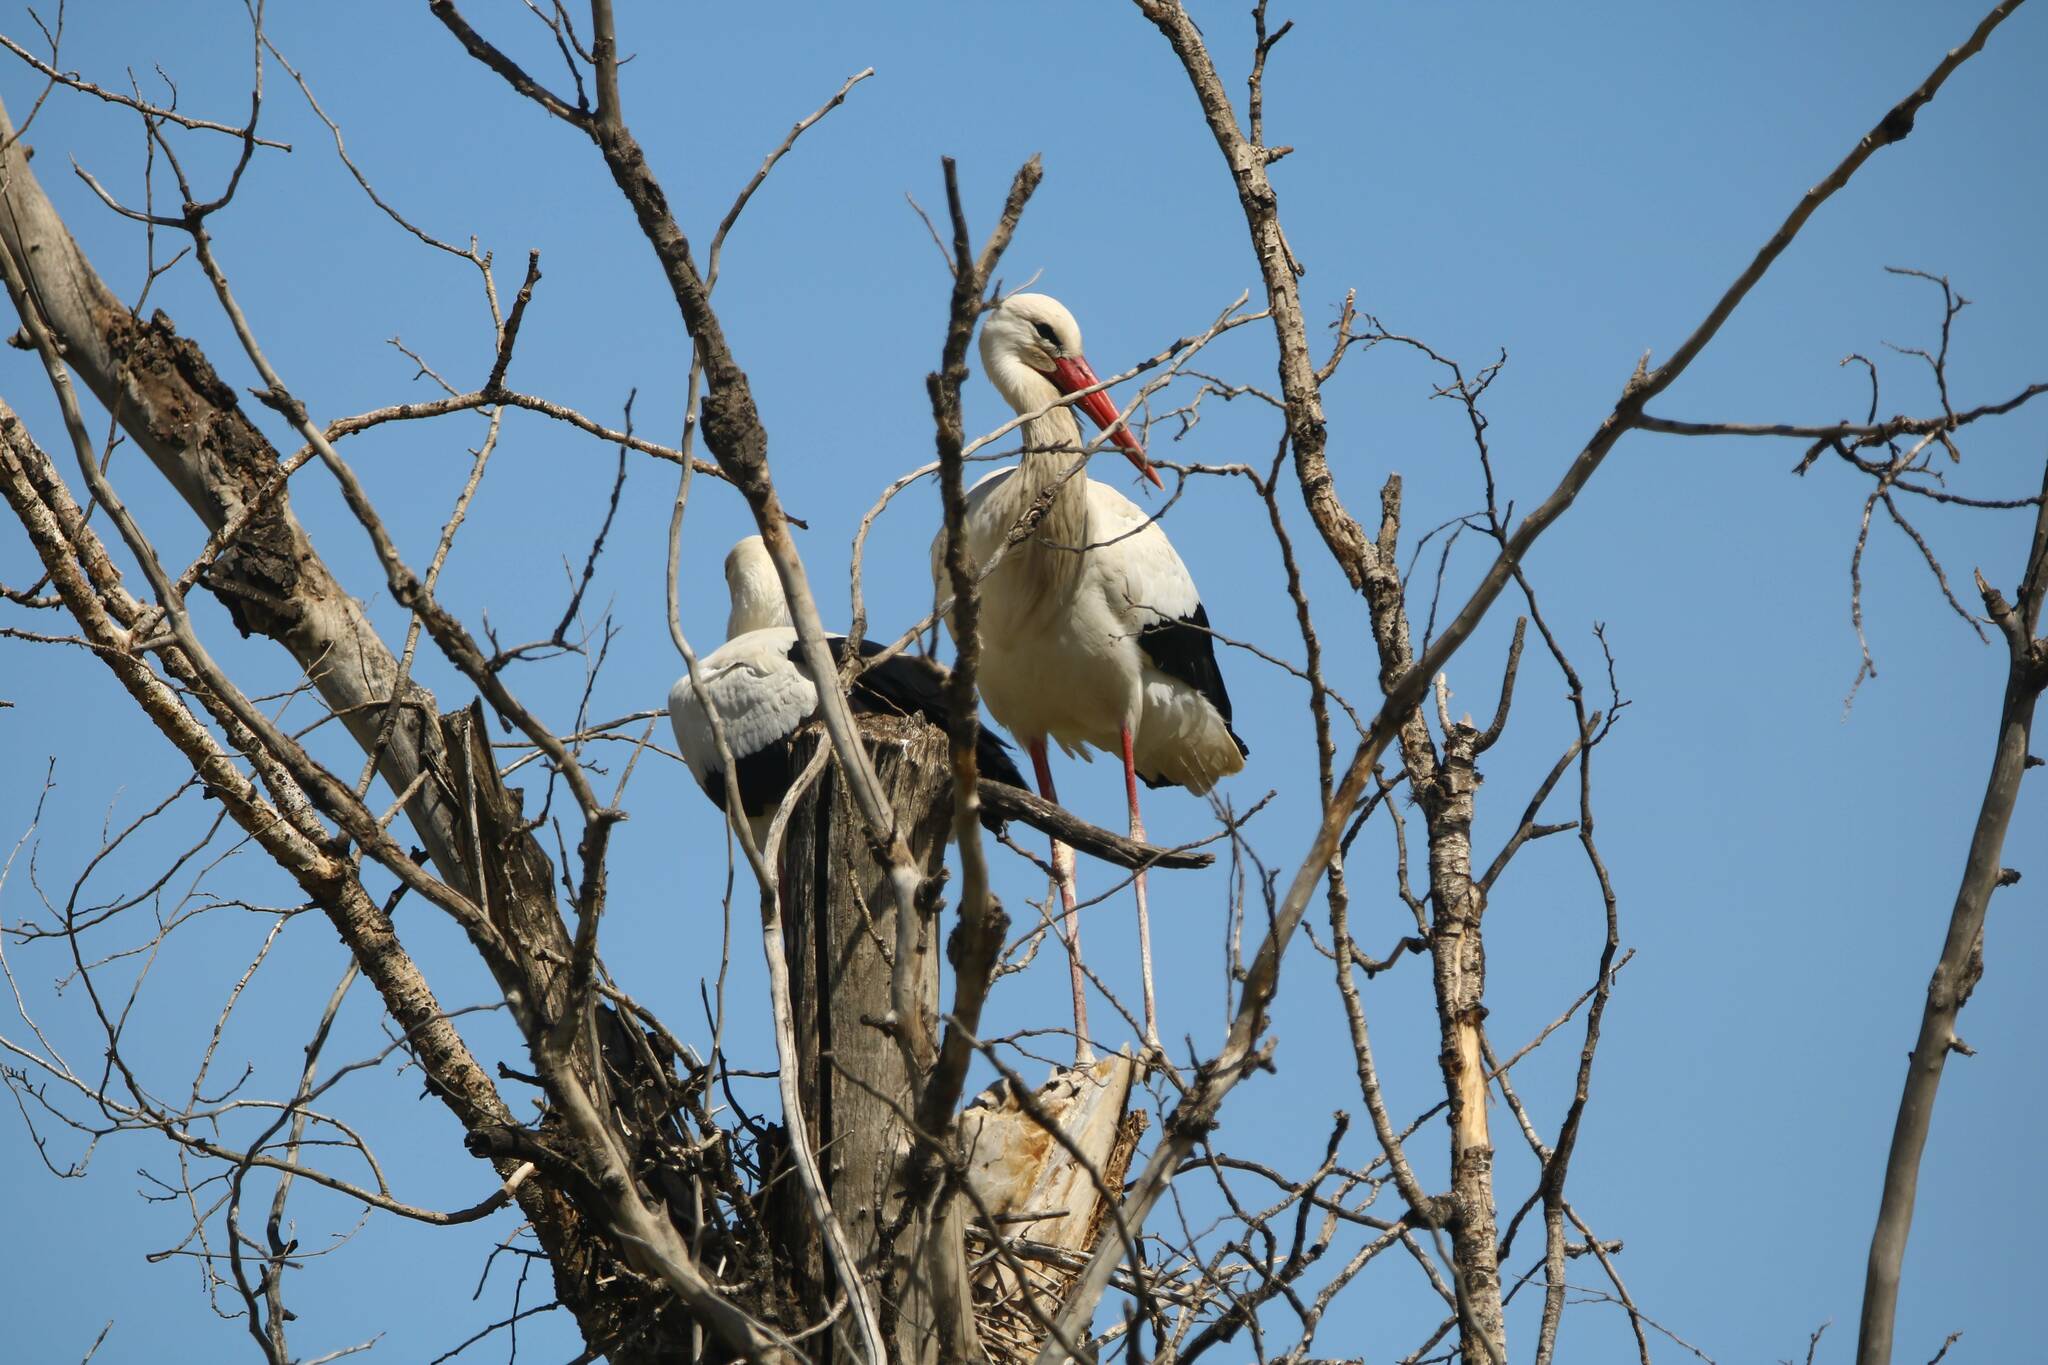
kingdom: Animalia
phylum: Chordata
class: Aves
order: Ciconiiformes
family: Ciconiidae
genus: Ciconia
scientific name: Ciconia ciconia
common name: White stork
